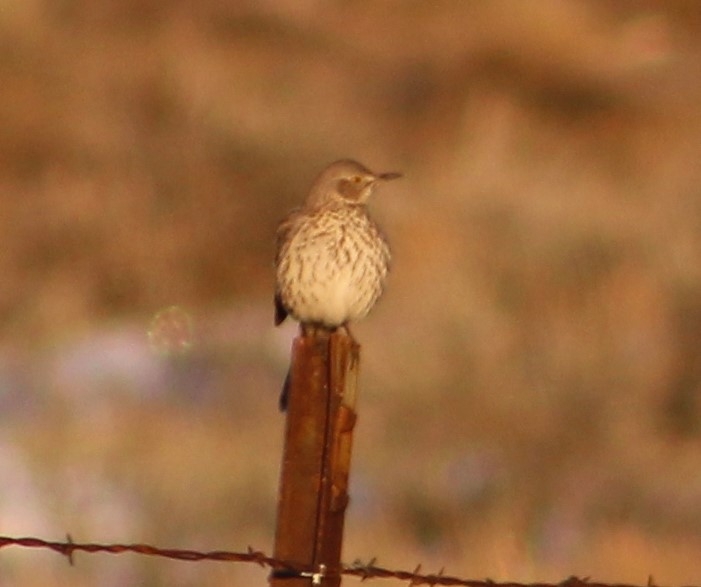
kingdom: Animalia
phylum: Chordata
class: Aves
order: Passeriformes
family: Mimidae
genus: Oreoscoptes
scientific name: Oreoscoptes montanus
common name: Sage thrasher
